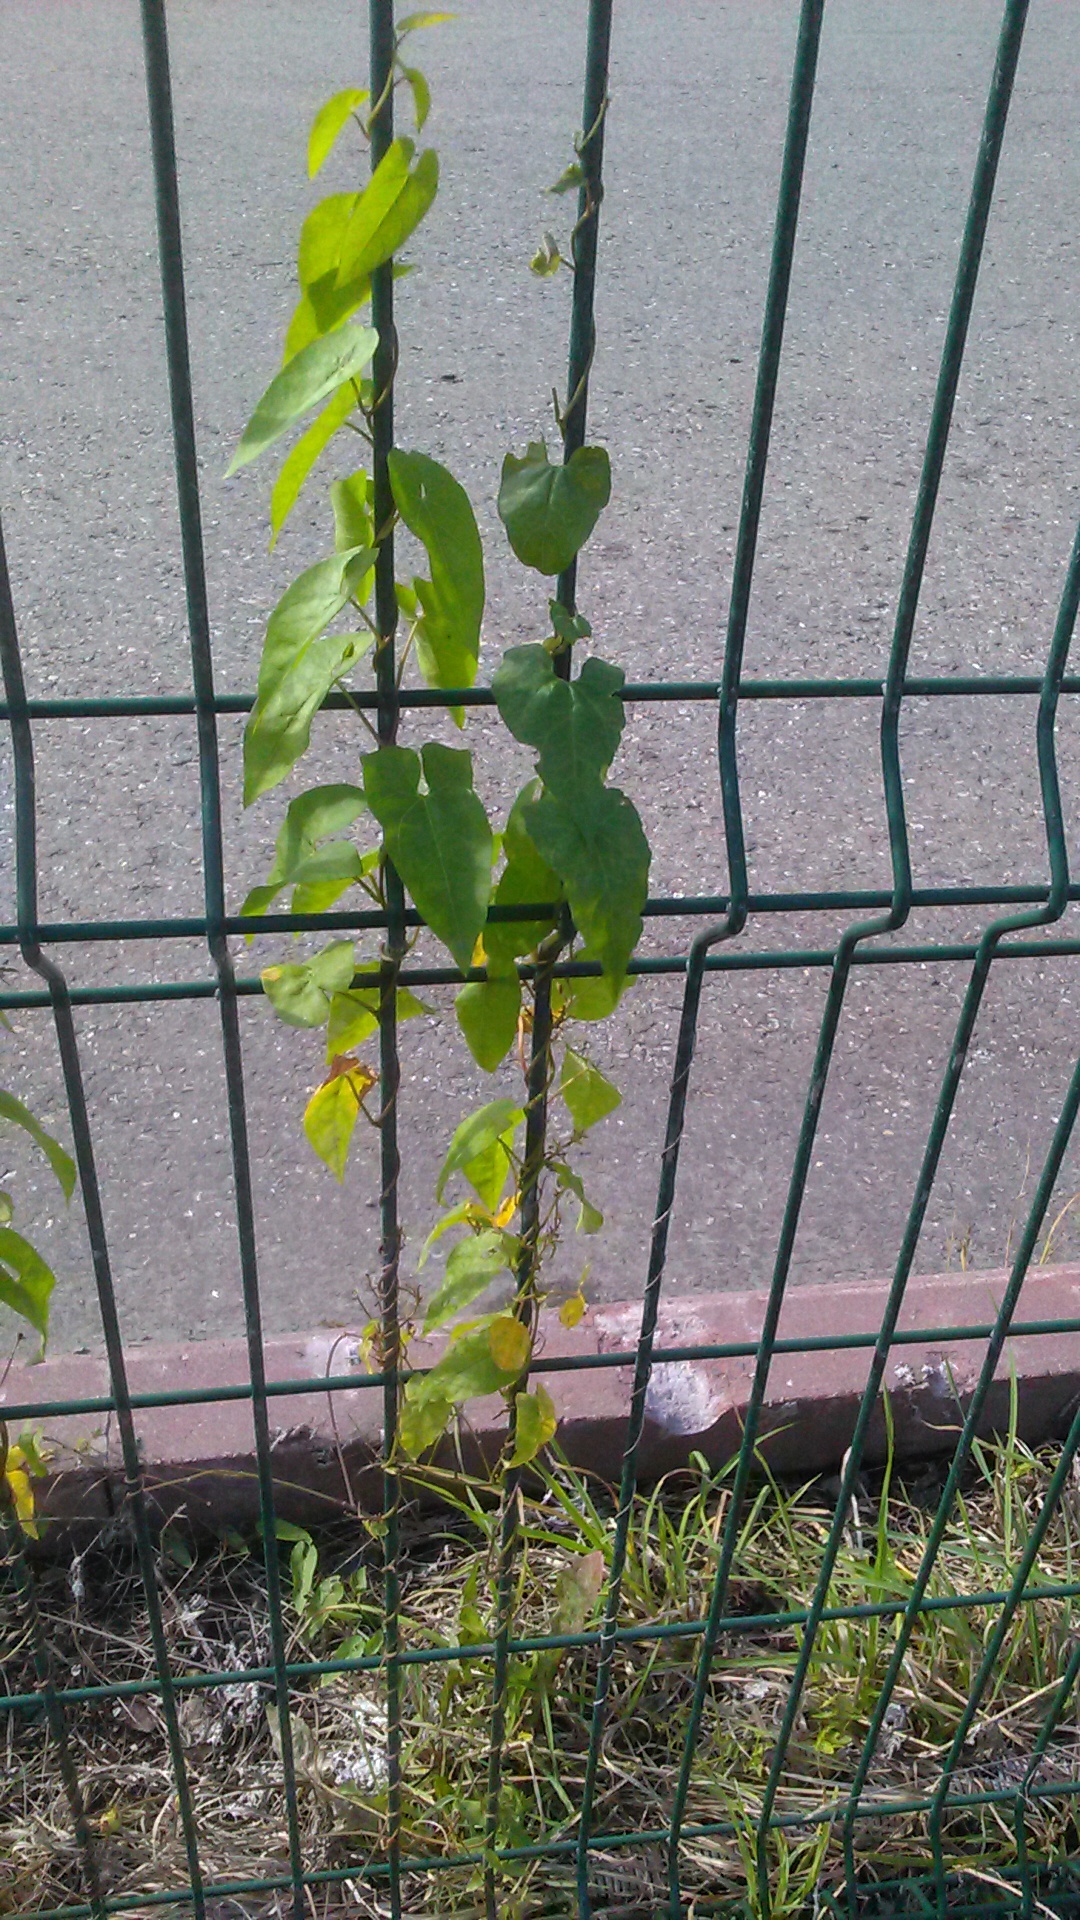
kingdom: Plantae
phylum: Tracheophyta
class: Magnoliopsida
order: Solanales
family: Convolvulaceae
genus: Calystegia
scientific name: Calystegia silvatica
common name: Large bindweed
